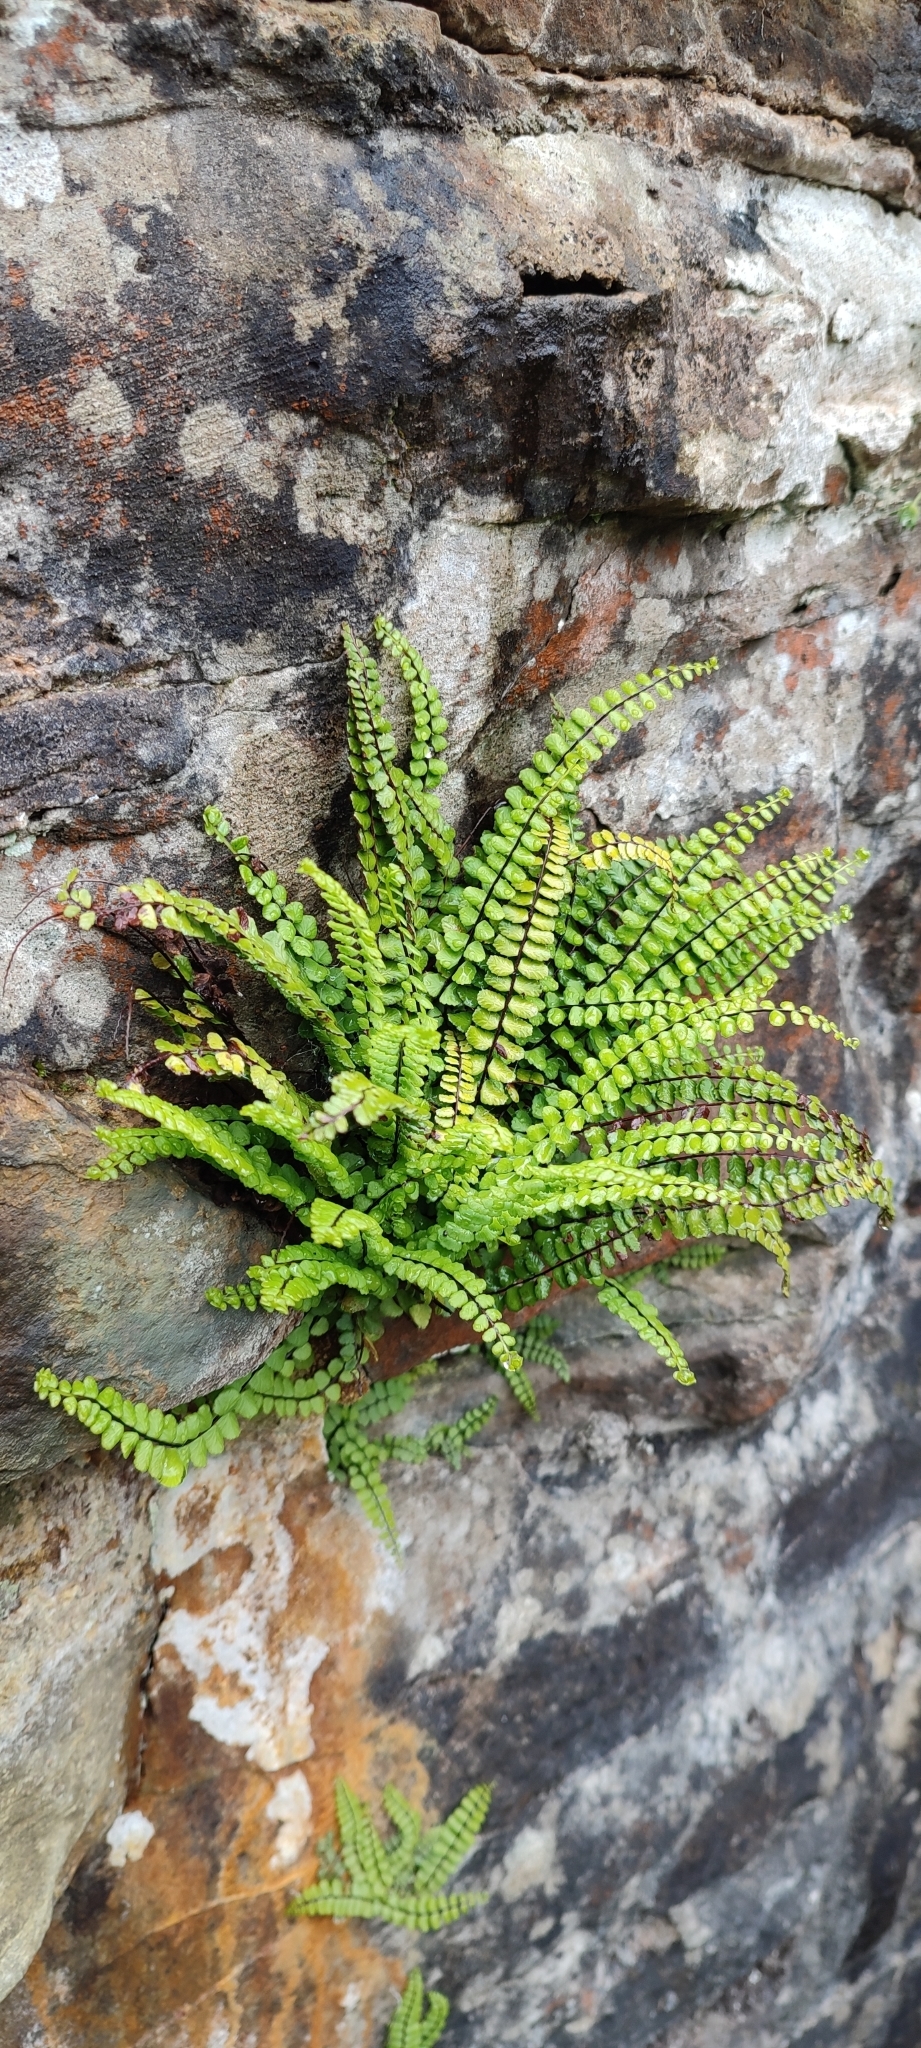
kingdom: Plantae
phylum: Tracheophyta
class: Polypodiopsida
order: Polypodiales
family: Aspleniaceae
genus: Asplenium
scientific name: Asplenium trichomanes
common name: Maidenhair spleenwort
